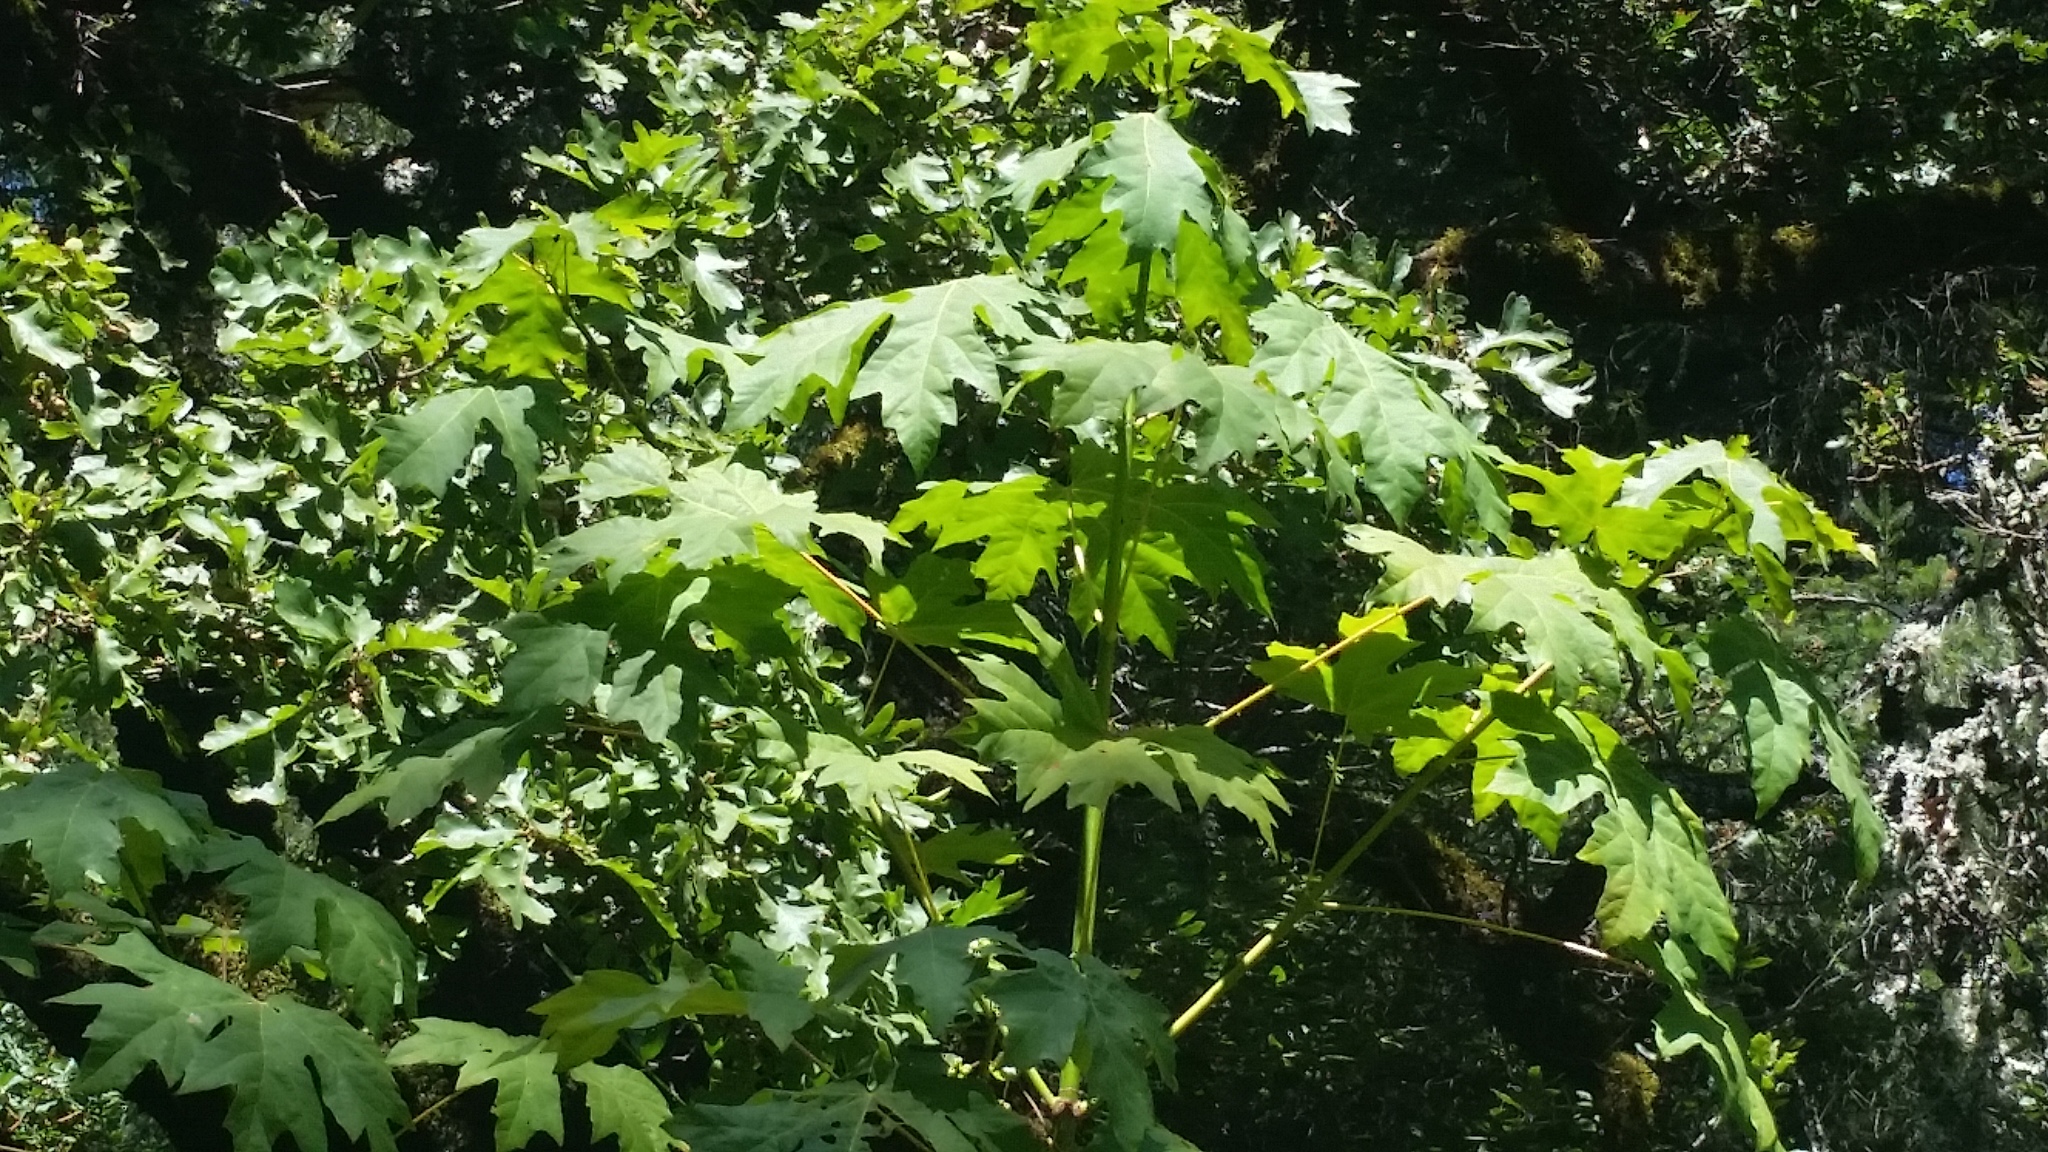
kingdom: Plantae
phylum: Tracheophyta
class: Magnoliopsida
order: Sapindales
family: Sapindaceae
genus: Acer
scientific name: Acer macrophyllum
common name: Oregon maple
